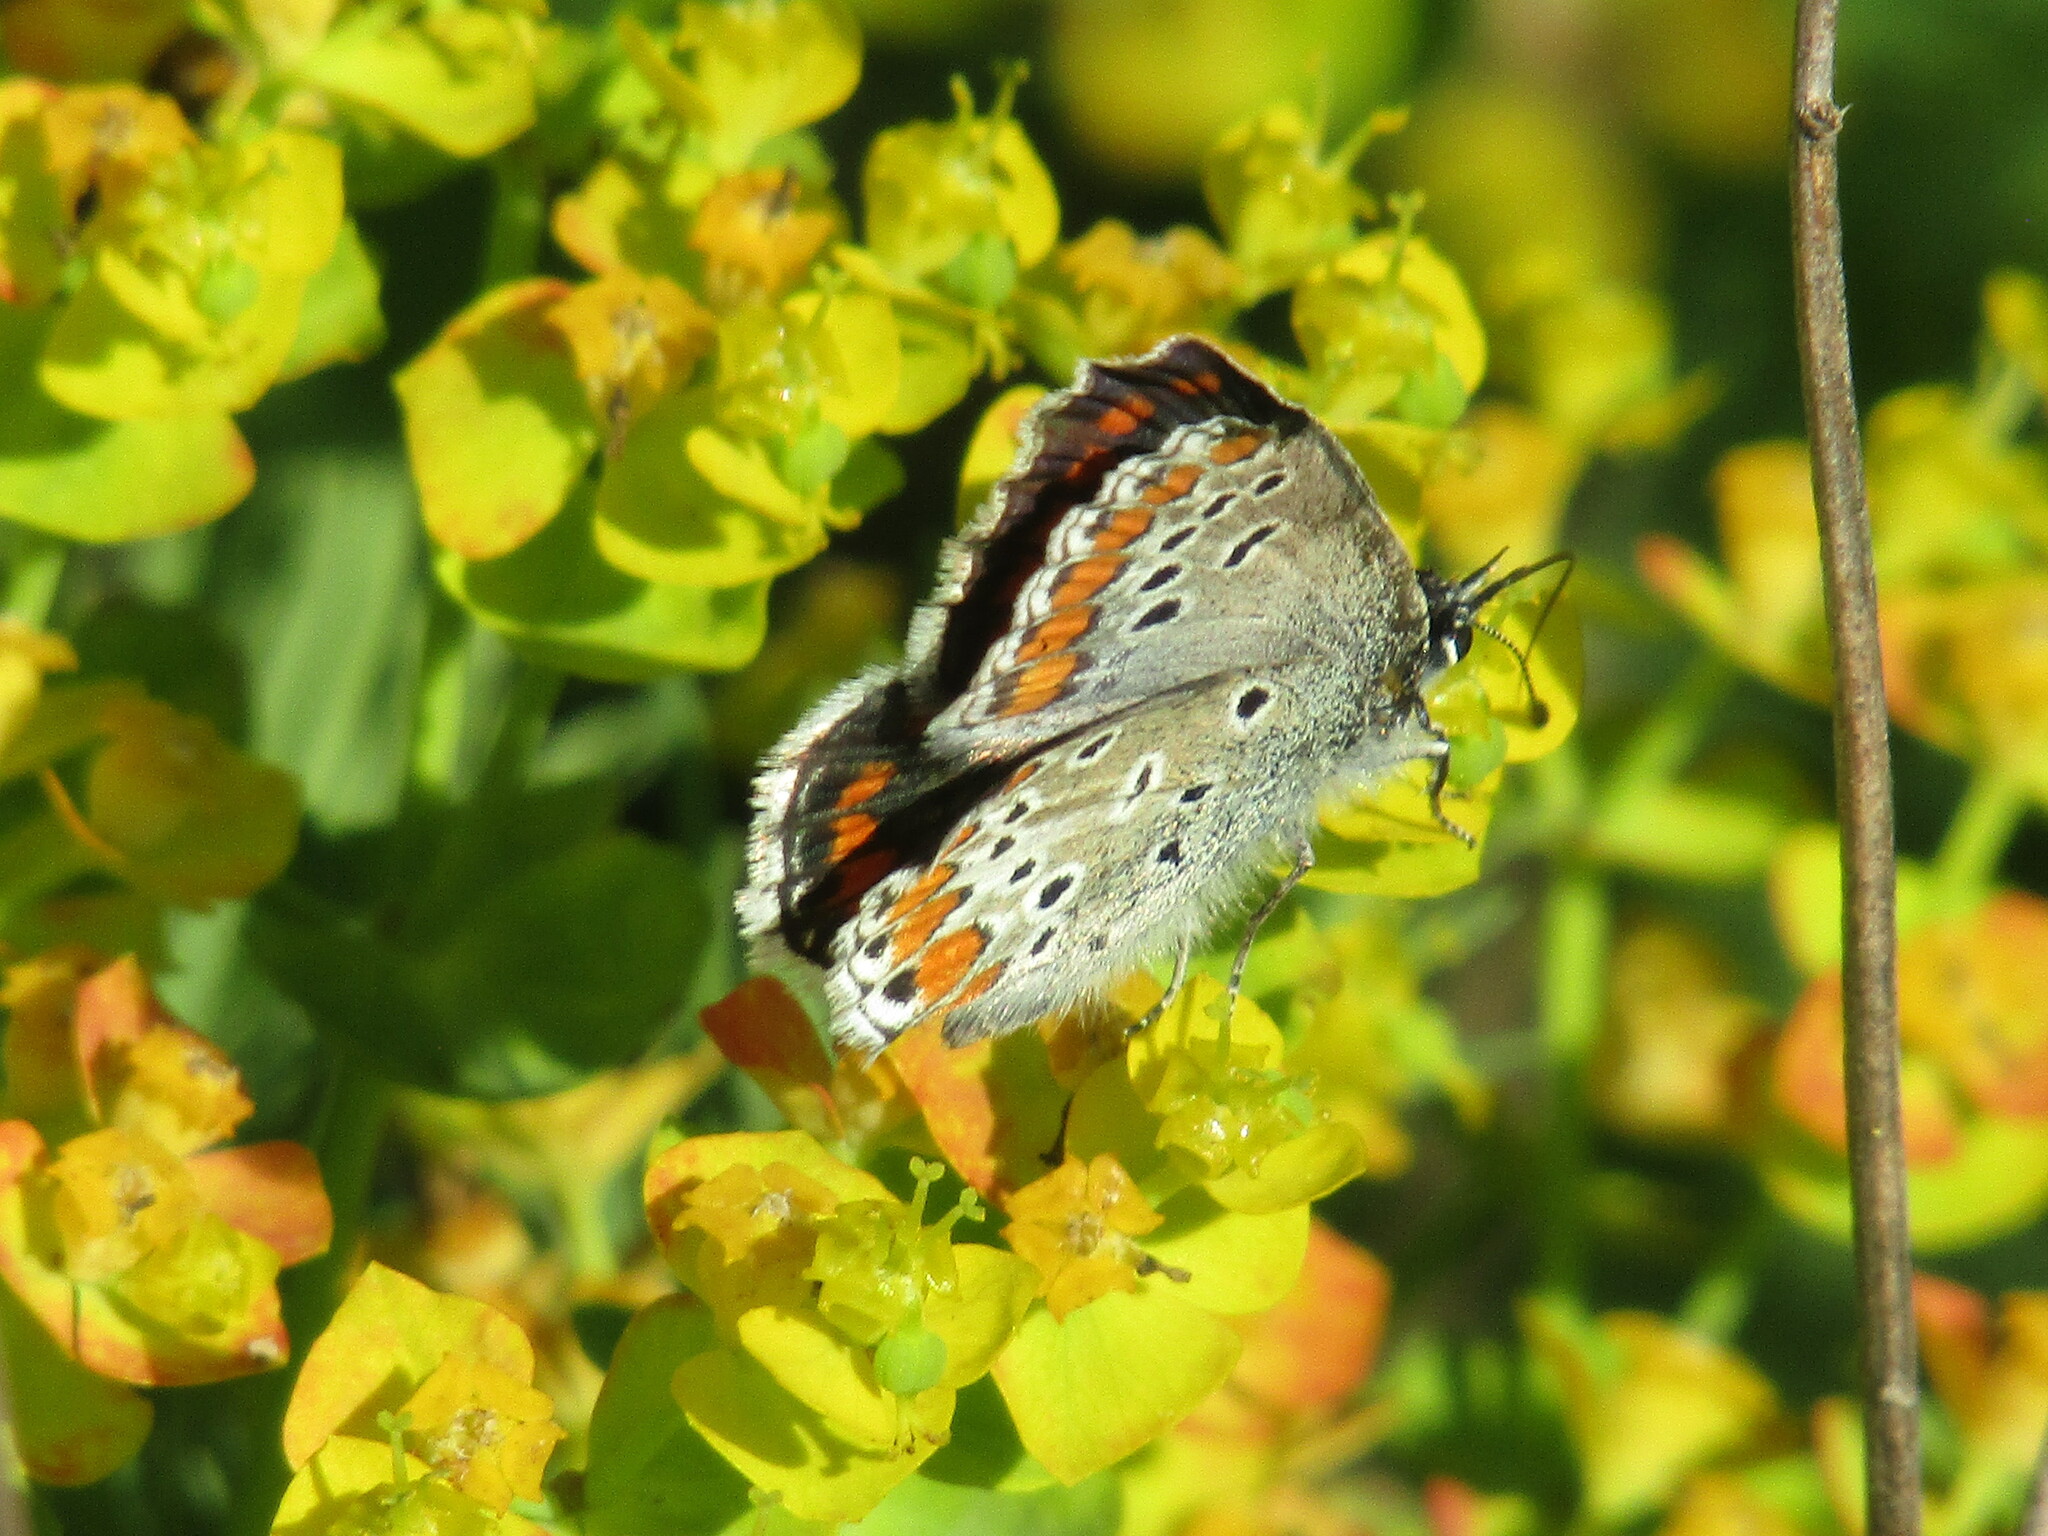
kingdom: Animalia
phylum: Arthropoda
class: Insecta
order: Lepidoptera
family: Lycaenidae
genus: Aricia
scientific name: Aricia agestis
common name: Brown argus
